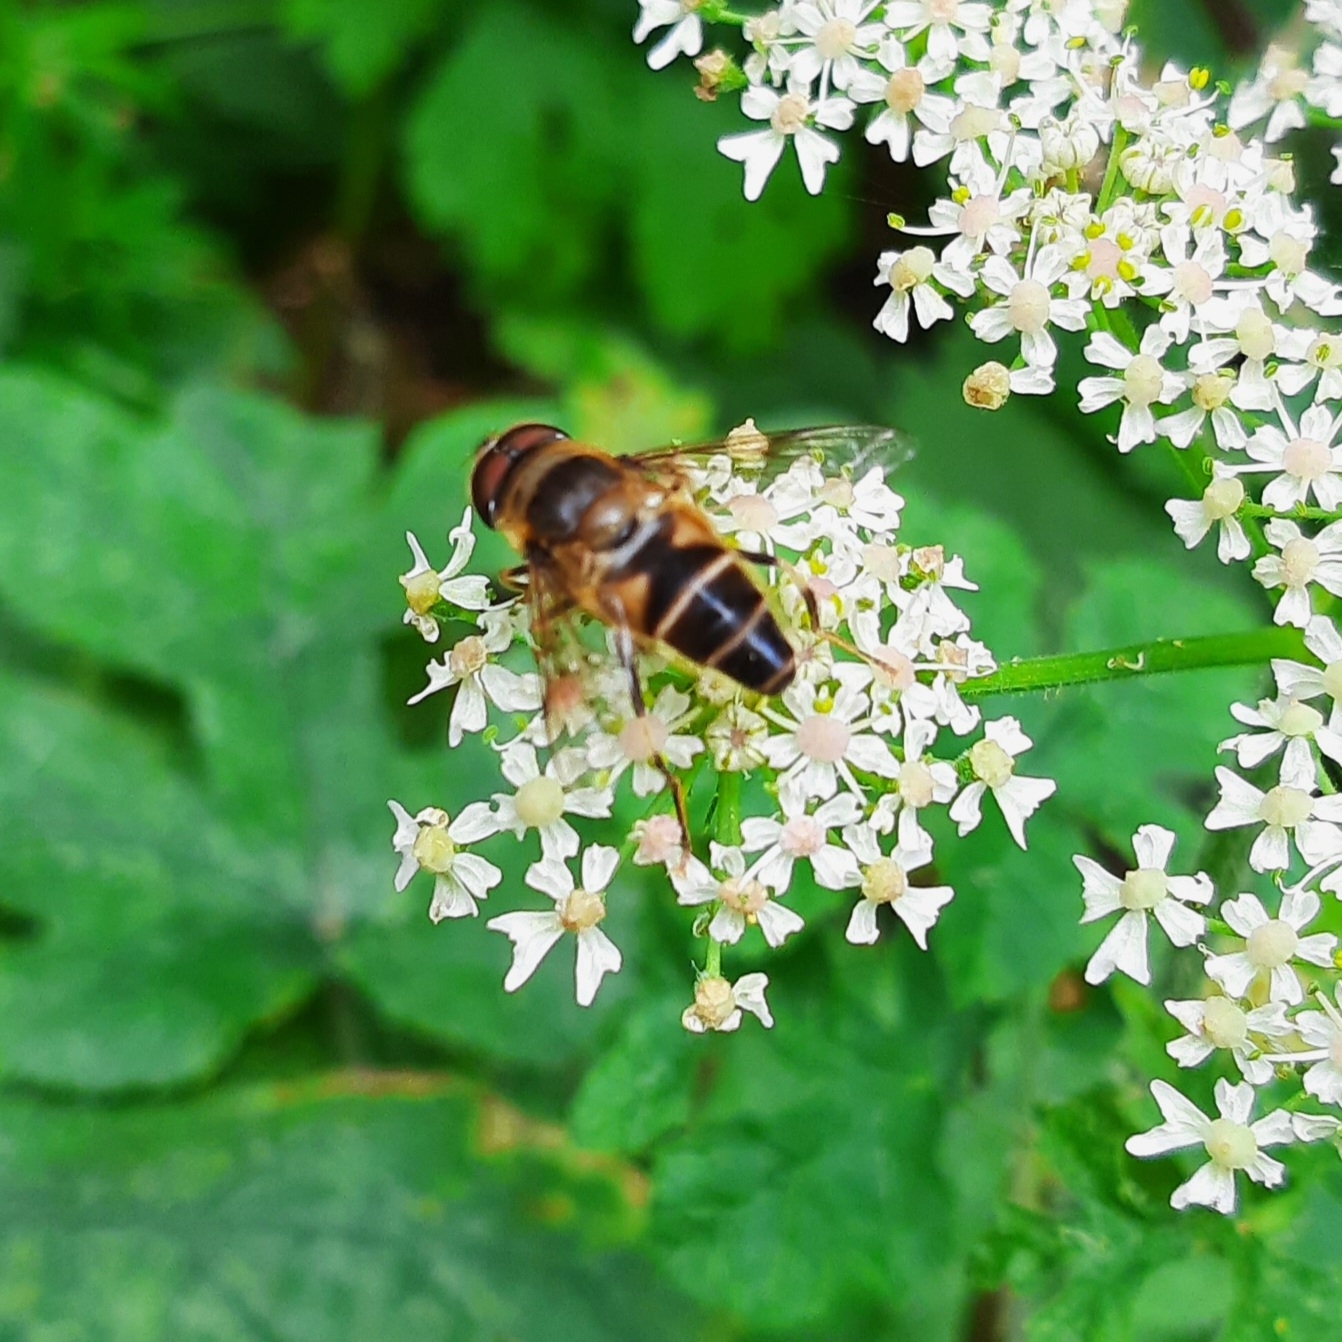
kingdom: Animalia
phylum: Arthropoda
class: Insecta
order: Diptera
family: Syrphidae
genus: Eristalis
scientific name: Eristalis pertinax
